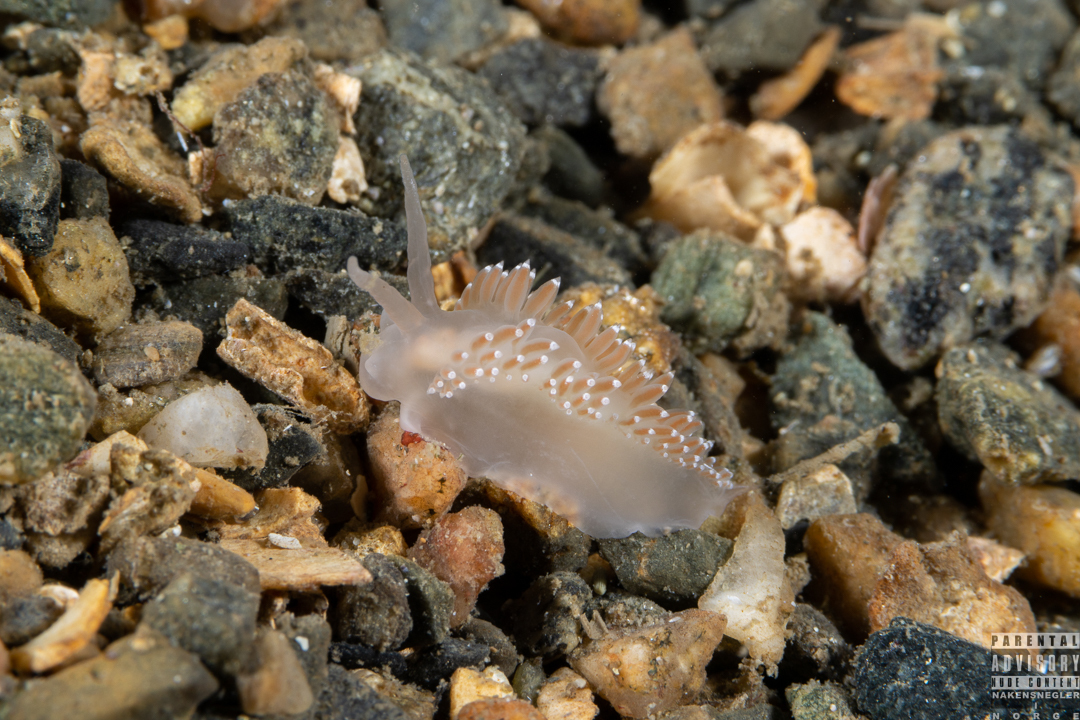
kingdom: Animalia
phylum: Mollusca
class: Gastropoda
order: Nudibranchia
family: Coryphellidae
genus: Coryphella
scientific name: Coryphella verrucosa
